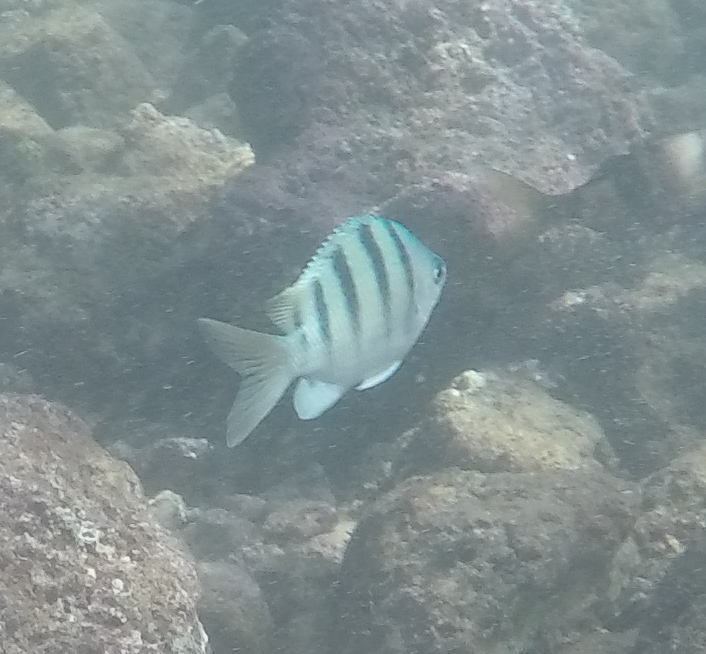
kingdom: Animalia
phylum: Chordata
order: Perciformes
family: Pomacentridae
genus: Abudefduf
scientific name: Abudefduf abdominalis
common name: Green damselfish
